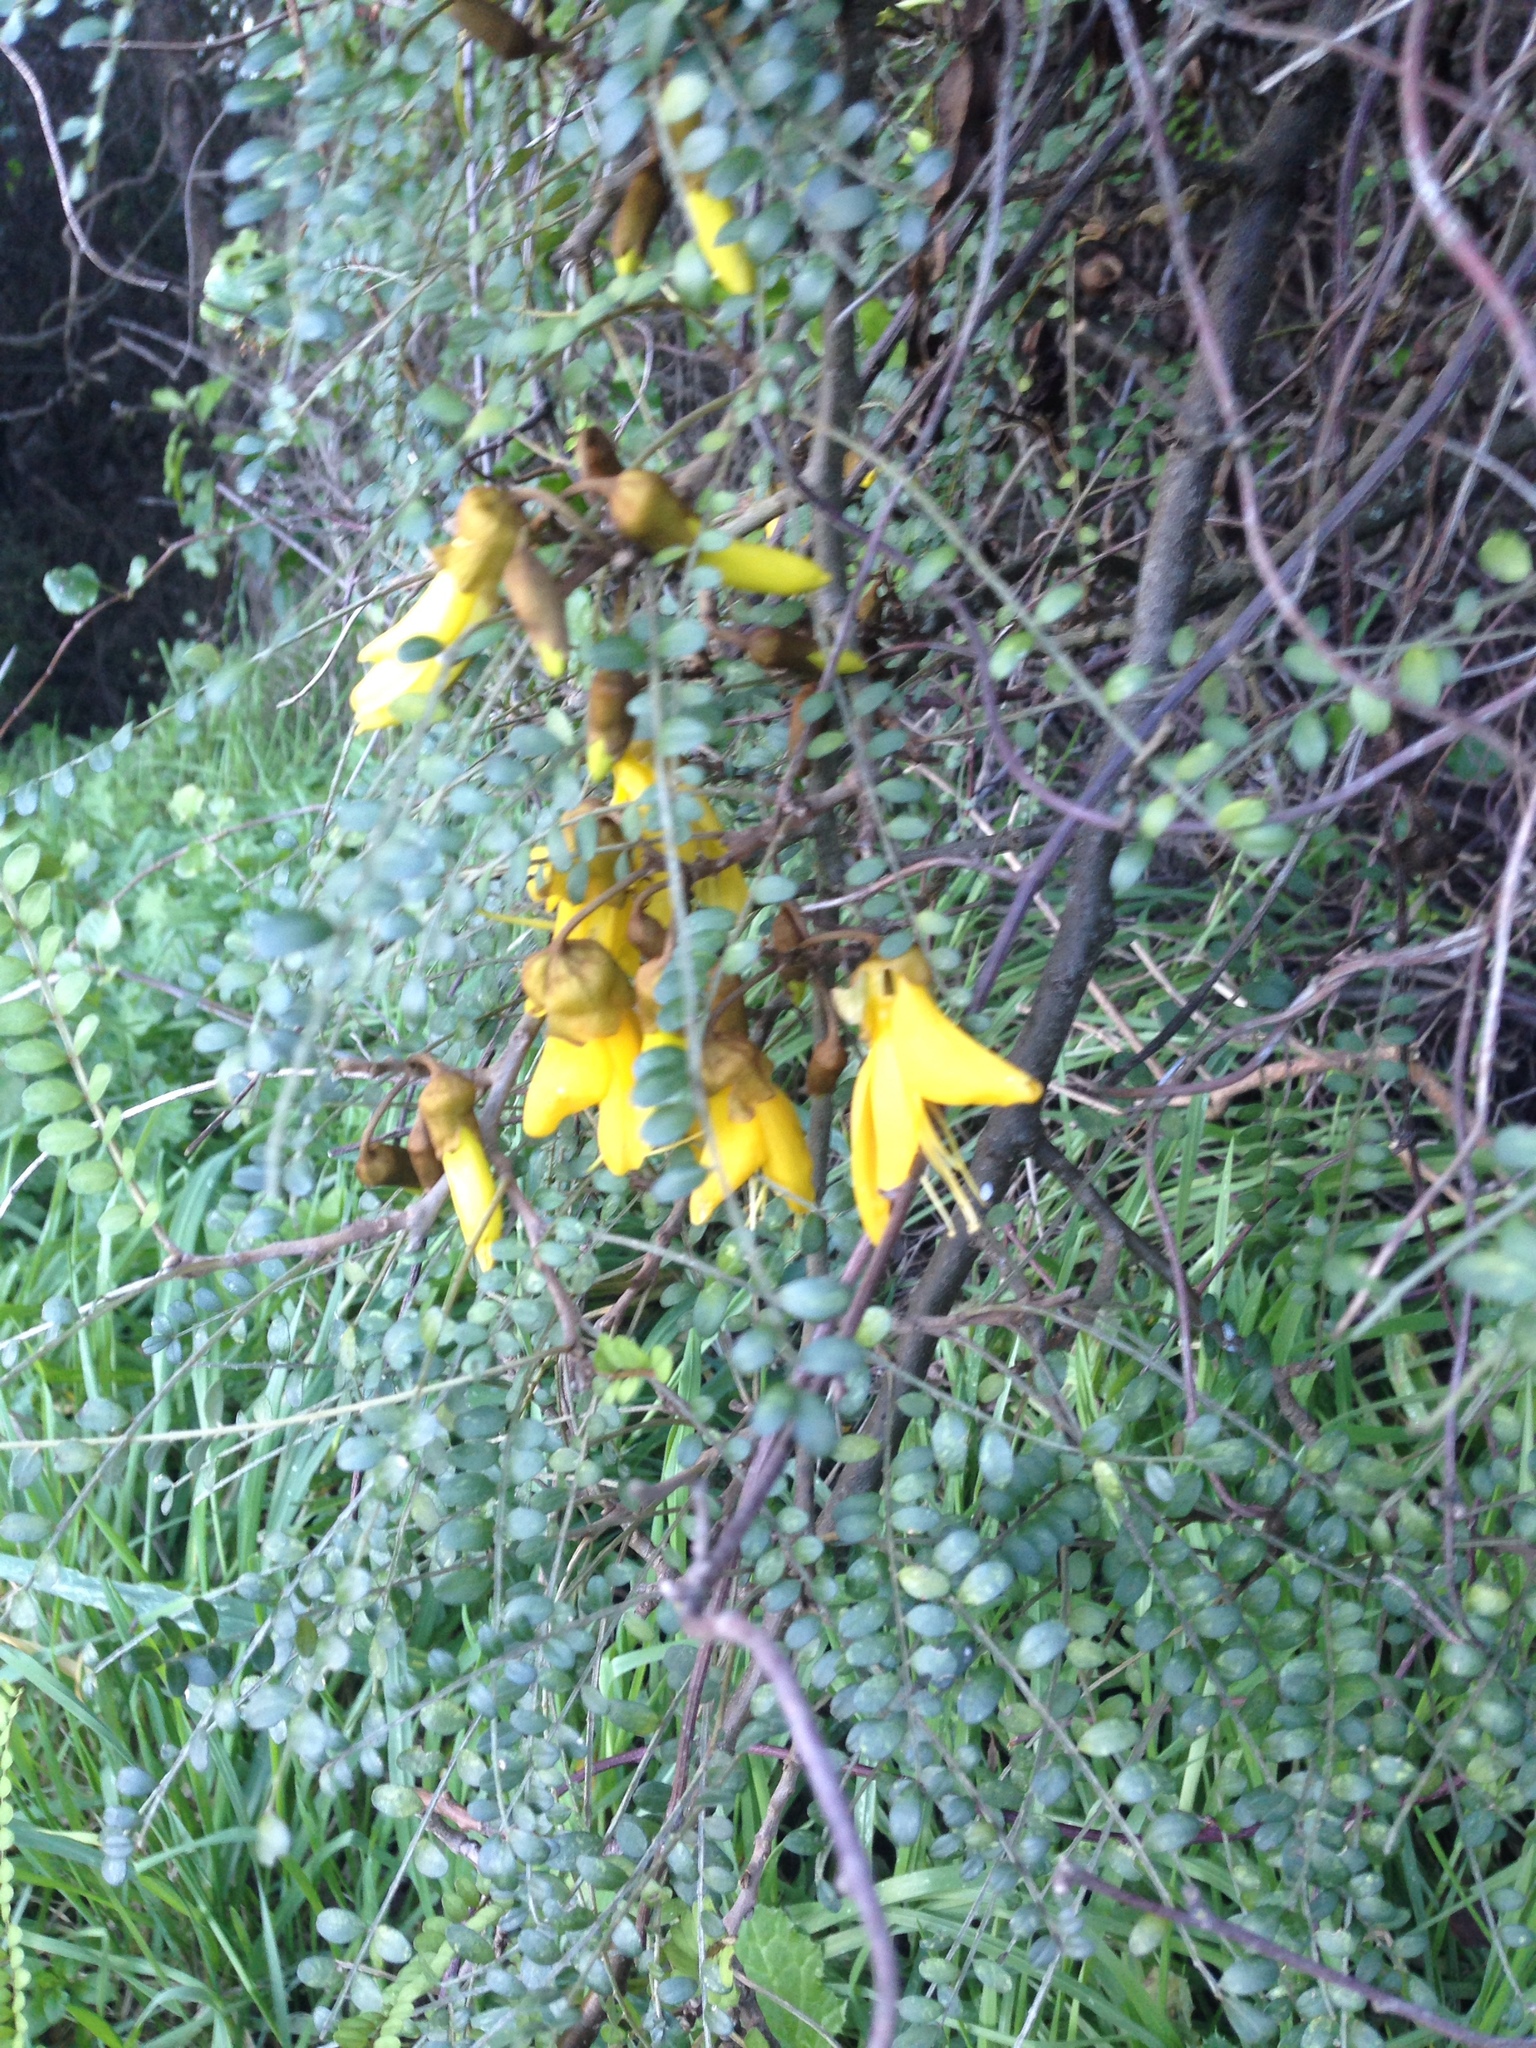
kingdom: Plantae
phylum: Tracheophyta
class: Magnoliopsida
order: Fabales
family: Fabaceae
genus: Sophora
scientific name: Sophora microphylla
